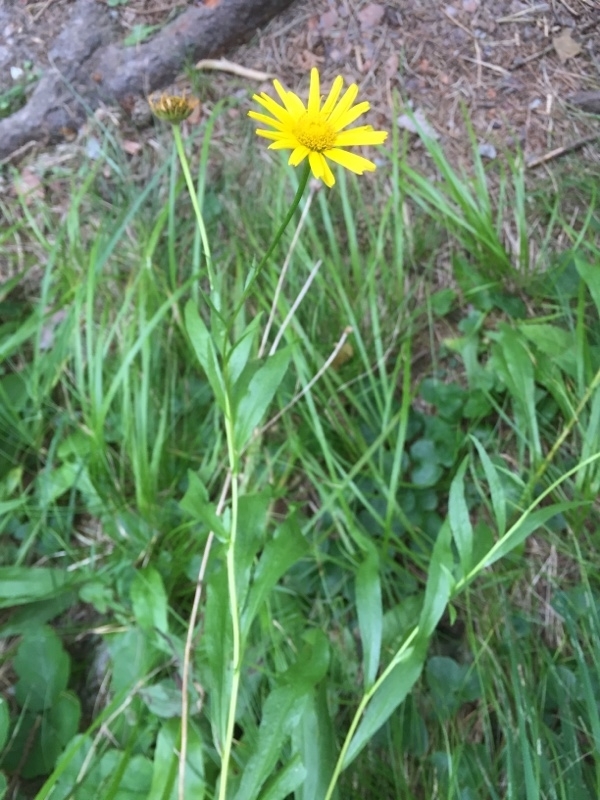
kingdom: Plantae
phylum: Tracheophyta
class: Magnoliopsida
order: Asterales
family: Asteraceae
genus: Buphthalmum
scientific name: Buphthalmum salicifolium
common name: Willow-leaved yellow-oxeye
